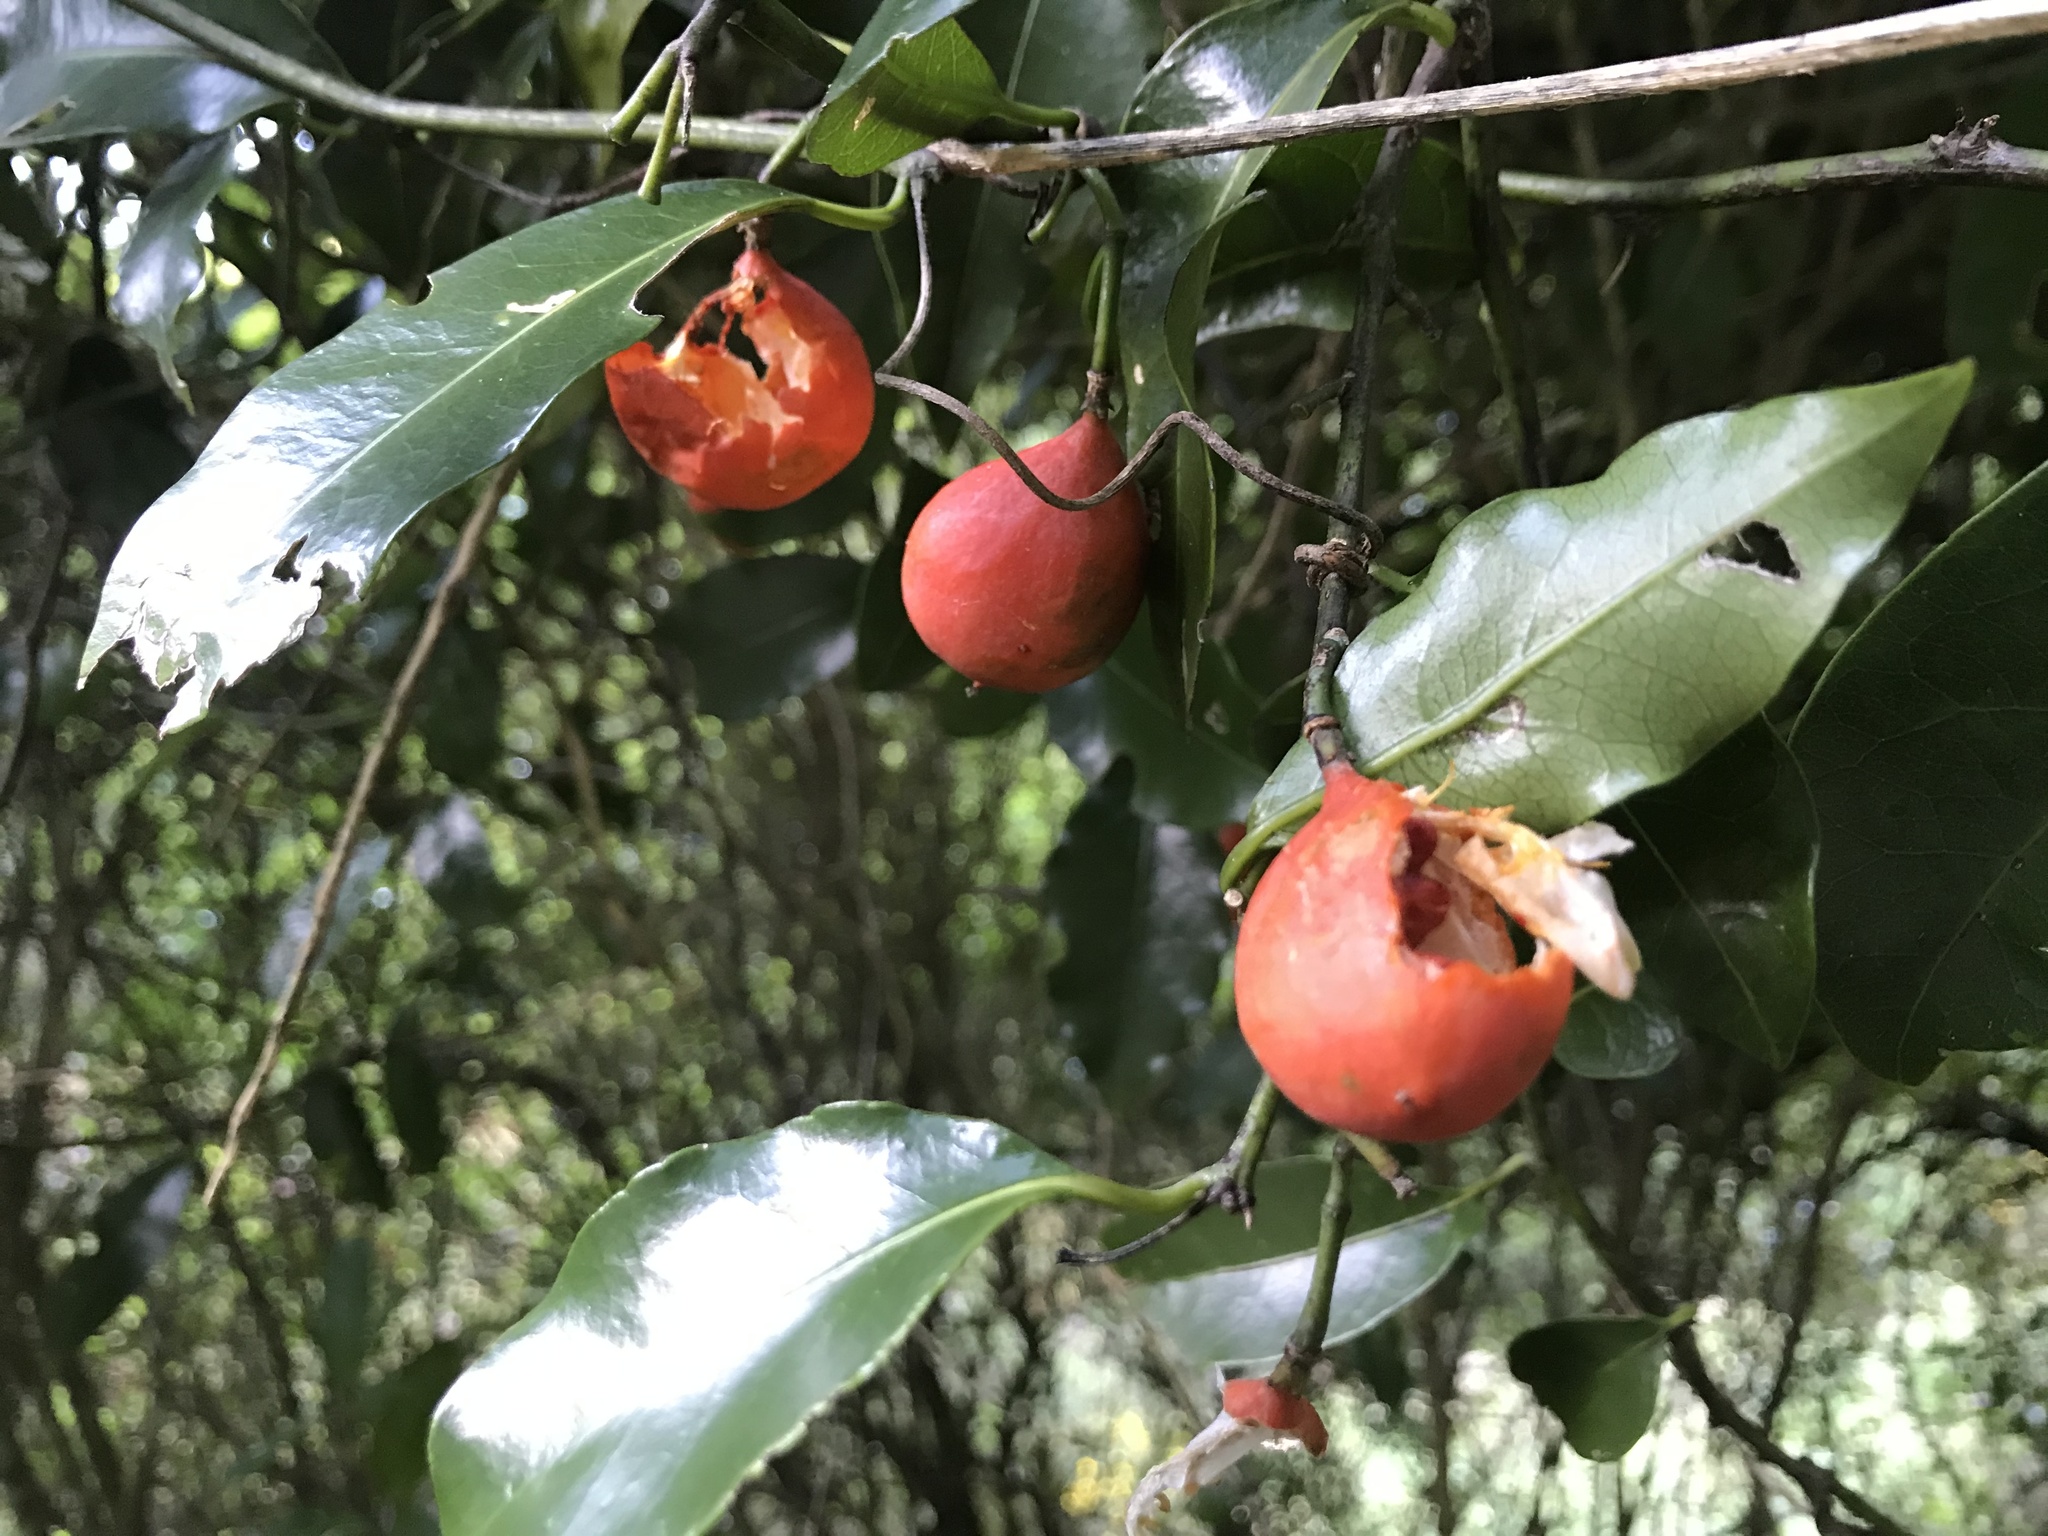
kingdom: Plantae
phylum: Tracheophyta
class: Magnoliopsida
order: Malpighiales
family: Passifloraceae
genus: Passiflora
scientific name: Passiflora tetrandra
